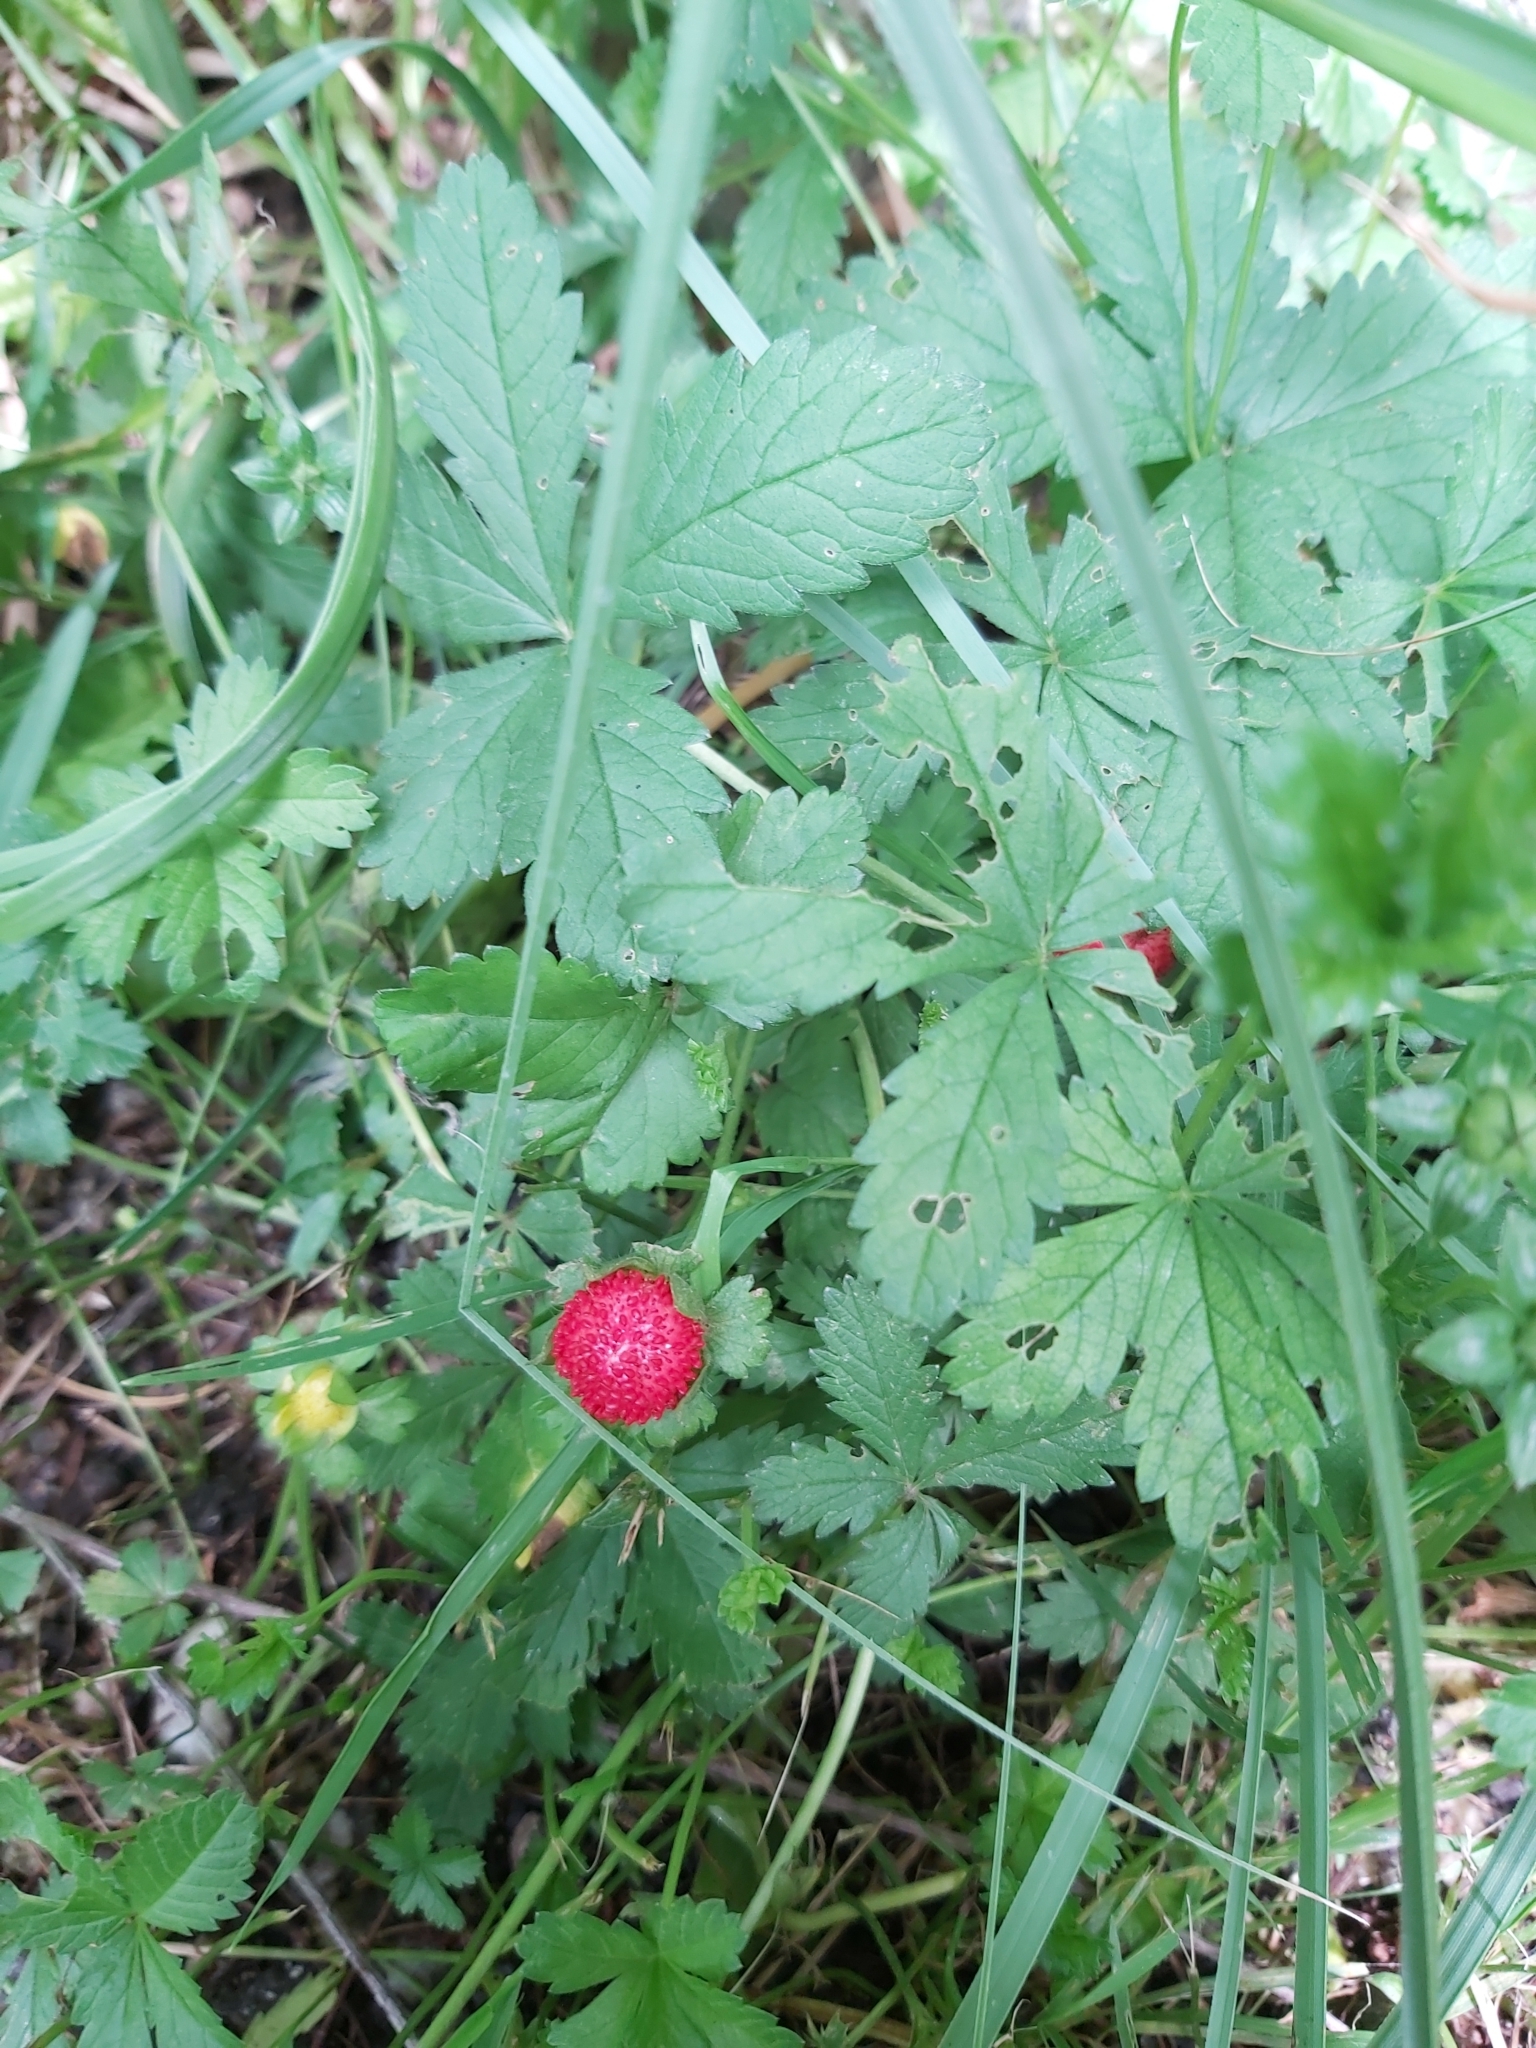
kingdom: Plantae
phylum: Tracheophyta
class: Magnoliopsida
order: Rosales
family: Rosaceae
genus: Potentilla
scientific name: Potentilla indica
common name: Yellow-flowered strawberry
